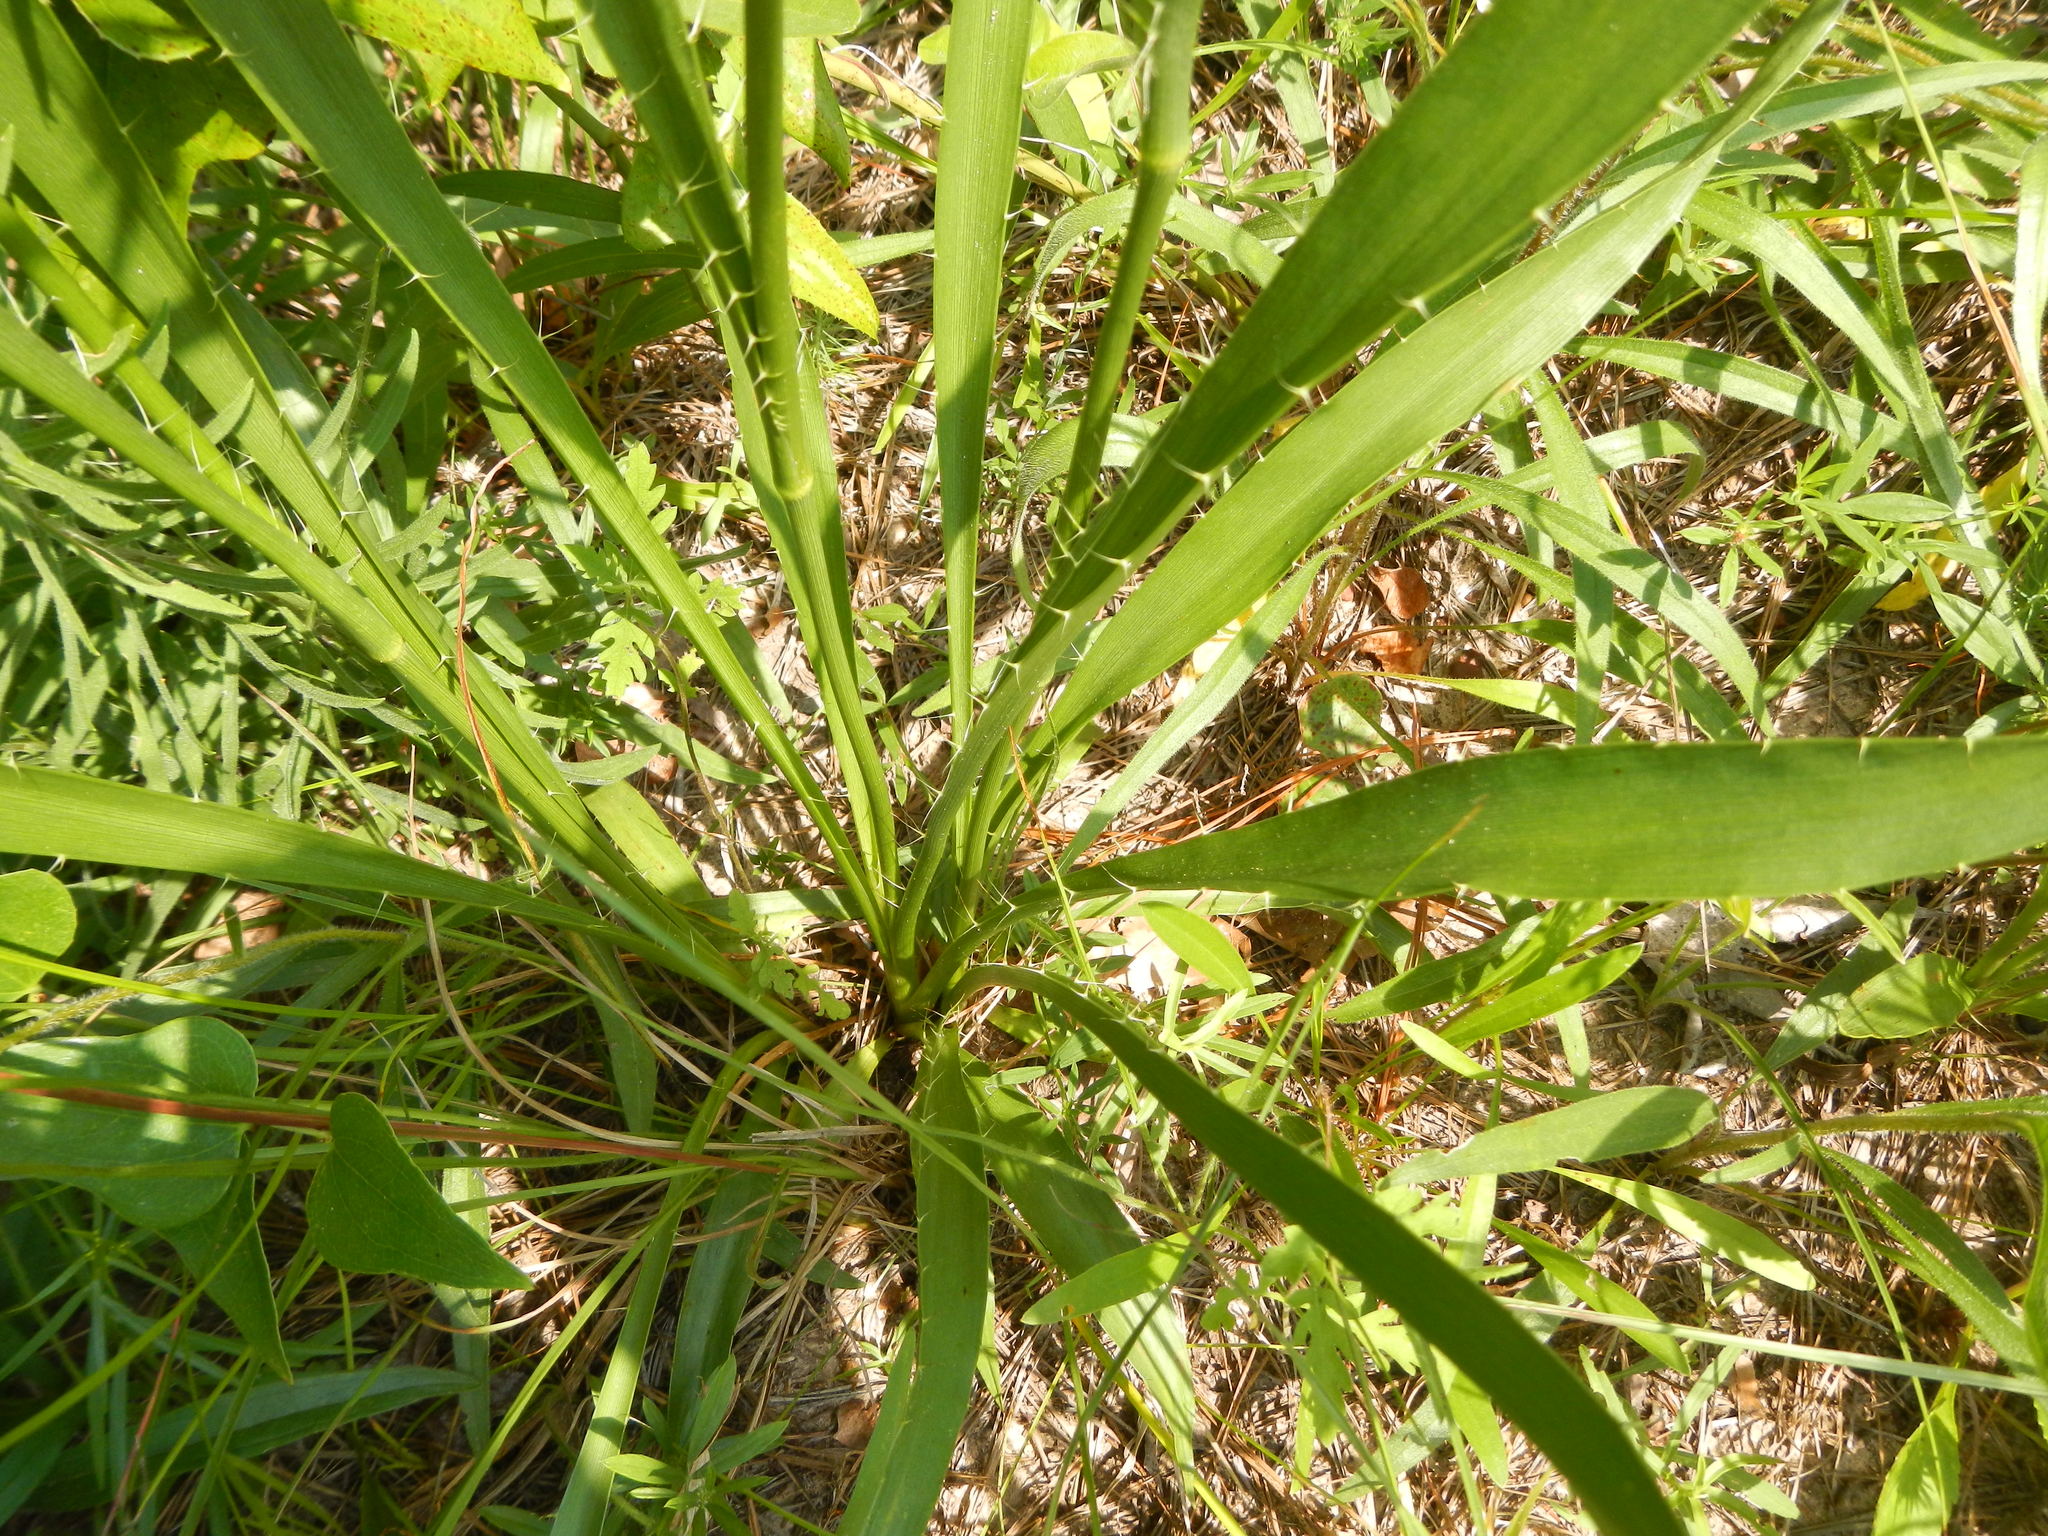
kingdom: Plantae
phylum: Tracheophyta
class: Magnoliopsida
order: Apiales
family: Apiaceae
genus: Eryngium
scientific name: Eryngium yuccifolium
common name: Button eryngo
